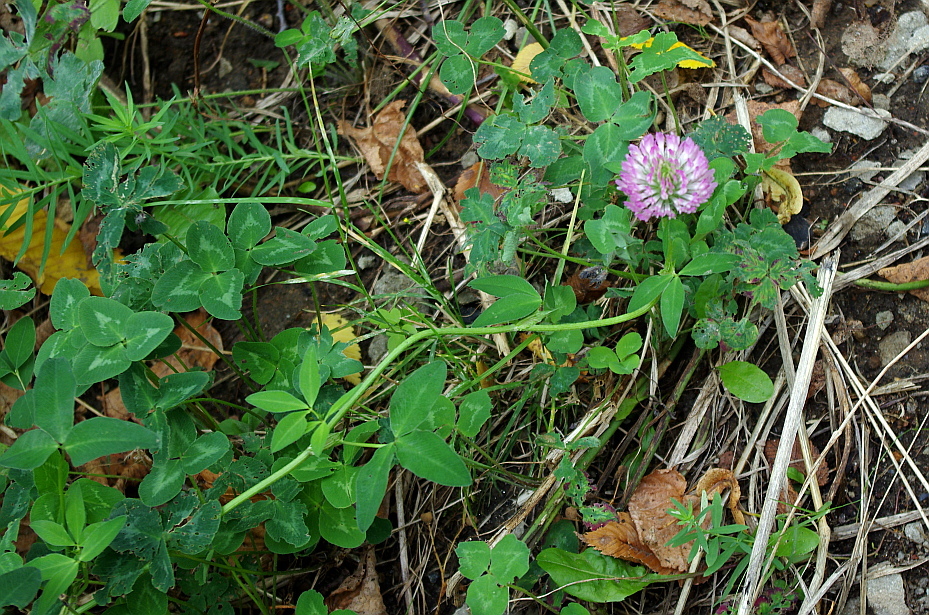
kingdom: Plantae
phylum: Tracheophyta
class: Magnoliopsida
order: Fabales
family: Fabaceae
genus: Trifolium
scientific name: Trifolium pratense
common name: Red clover
